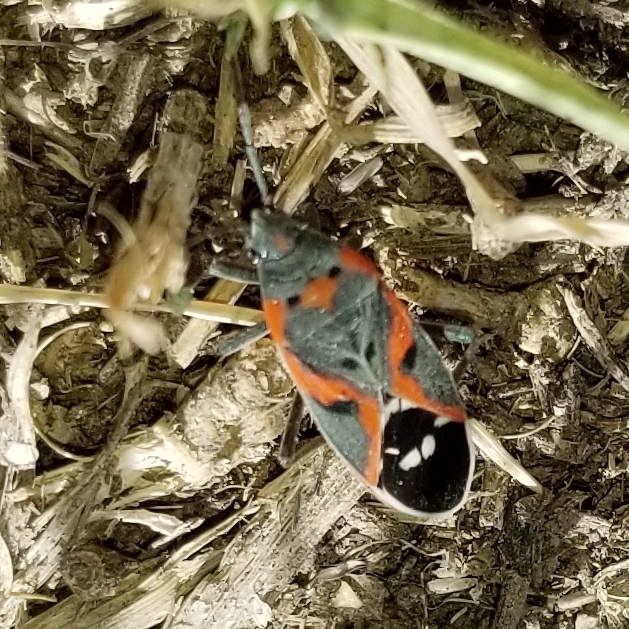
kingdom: Animalia
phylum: Arthropoda
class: Insecta
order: Hemiptera
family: Lygaeidae
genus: Lygaeus
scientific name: Lygaeus kalmii
